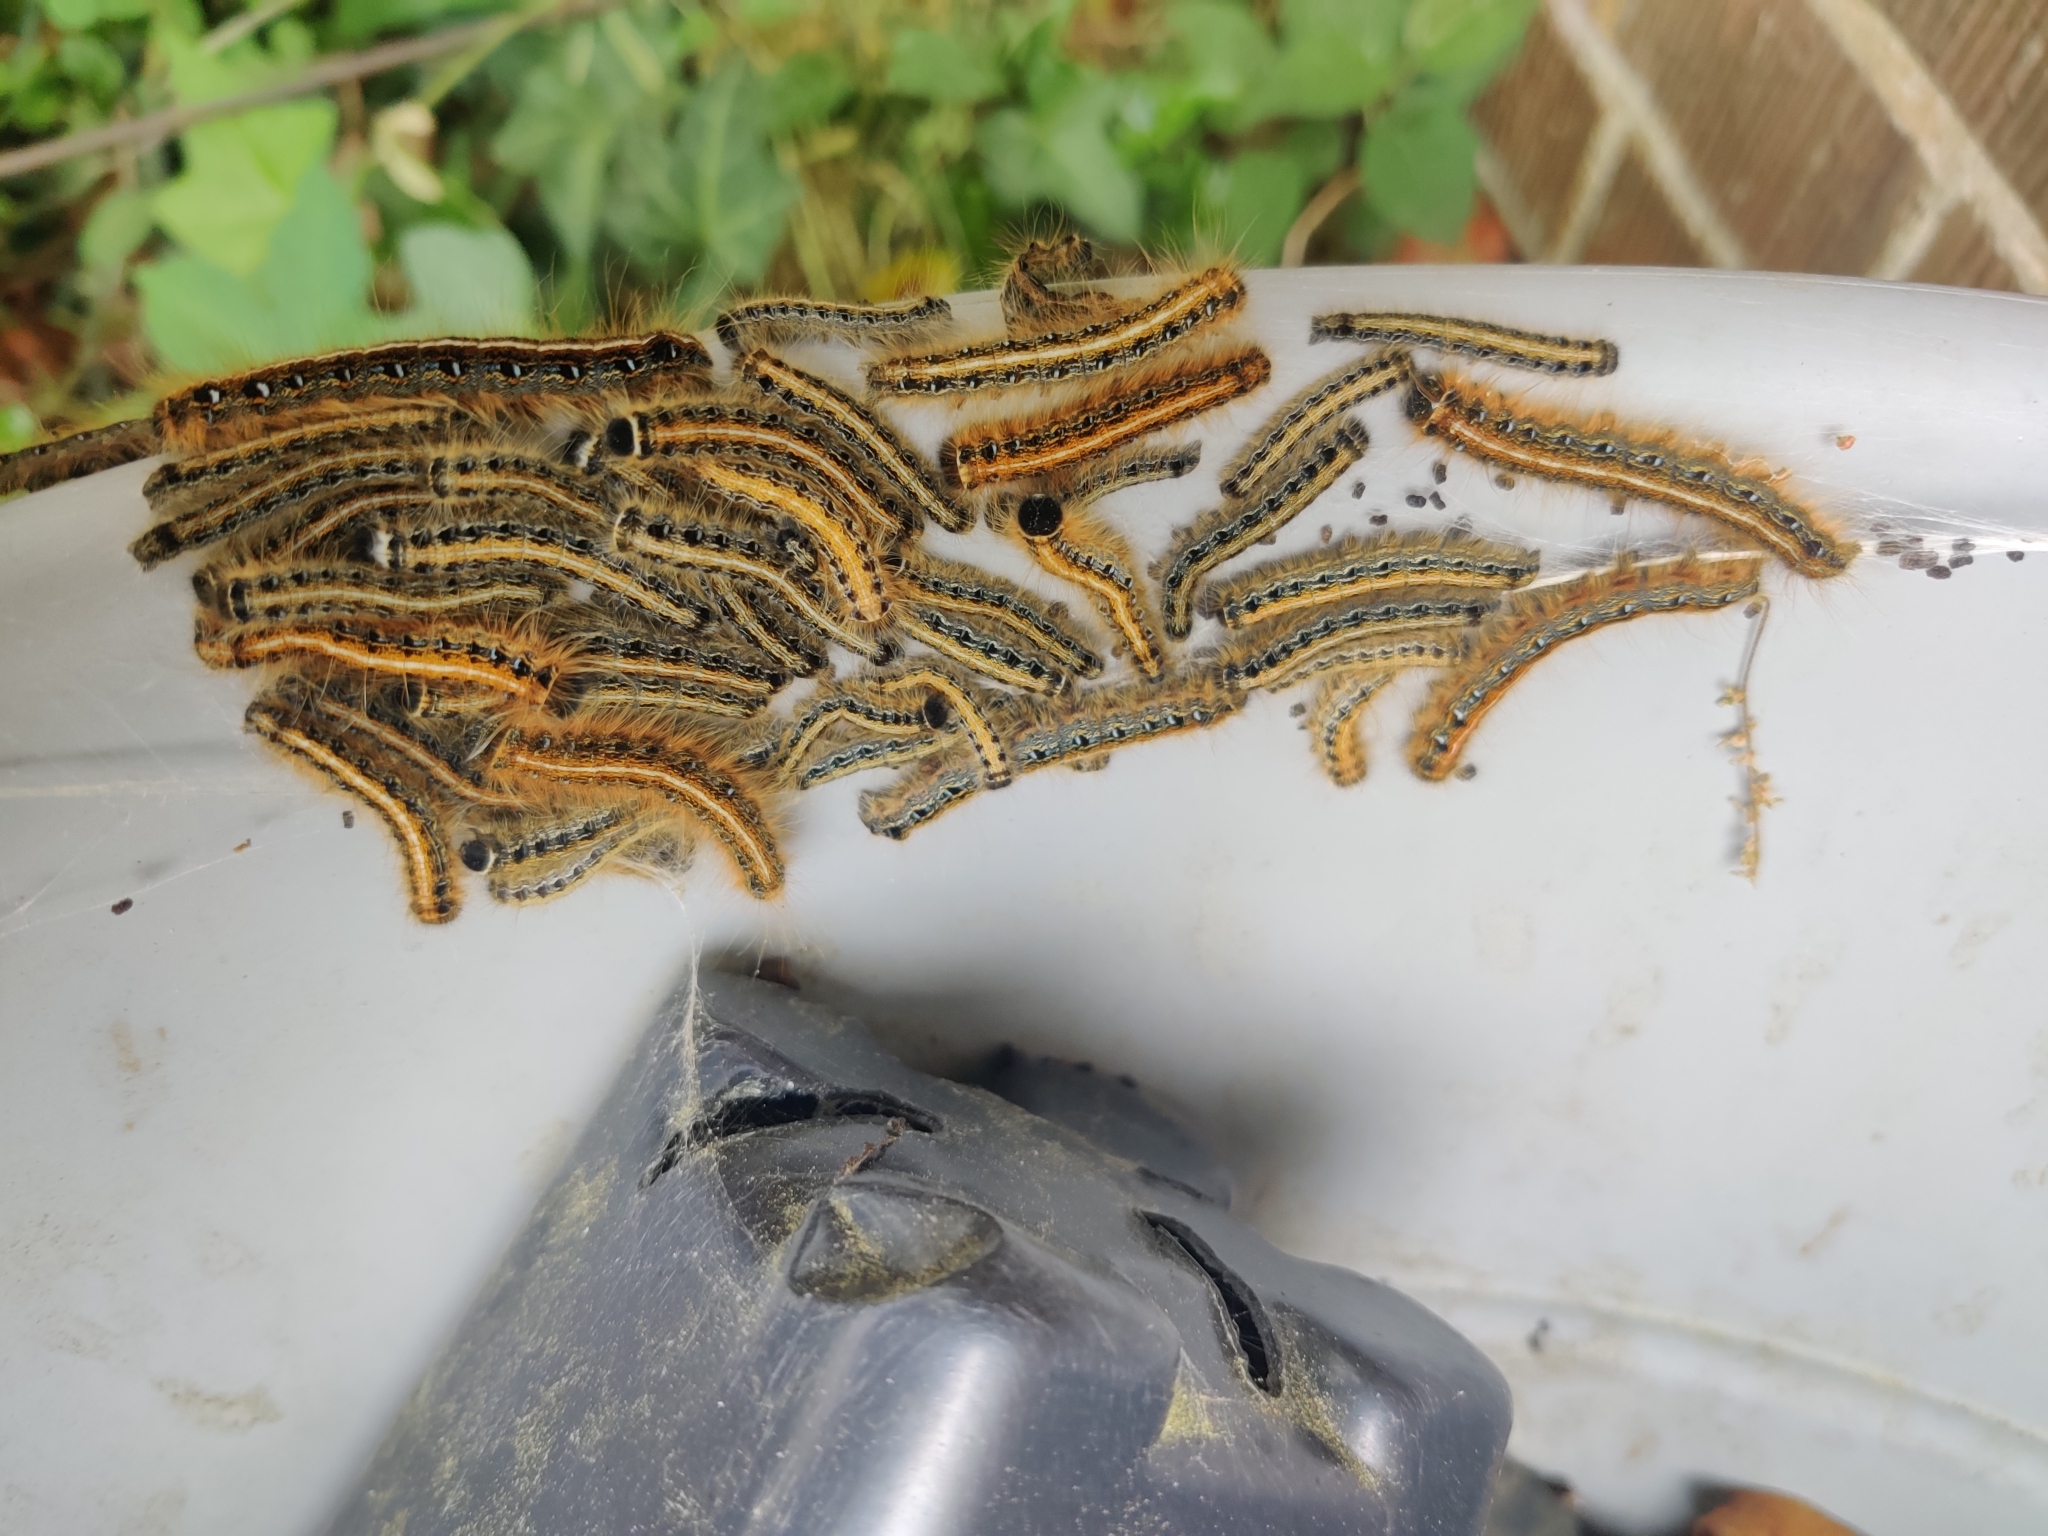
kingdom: Animalia
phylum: Arthropoda
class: Insecta
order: Lepidoptera
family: Lasiocampidae
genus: Malacosoma
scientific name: Malacosoma americana
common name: Eastern tent caterpillar moth
